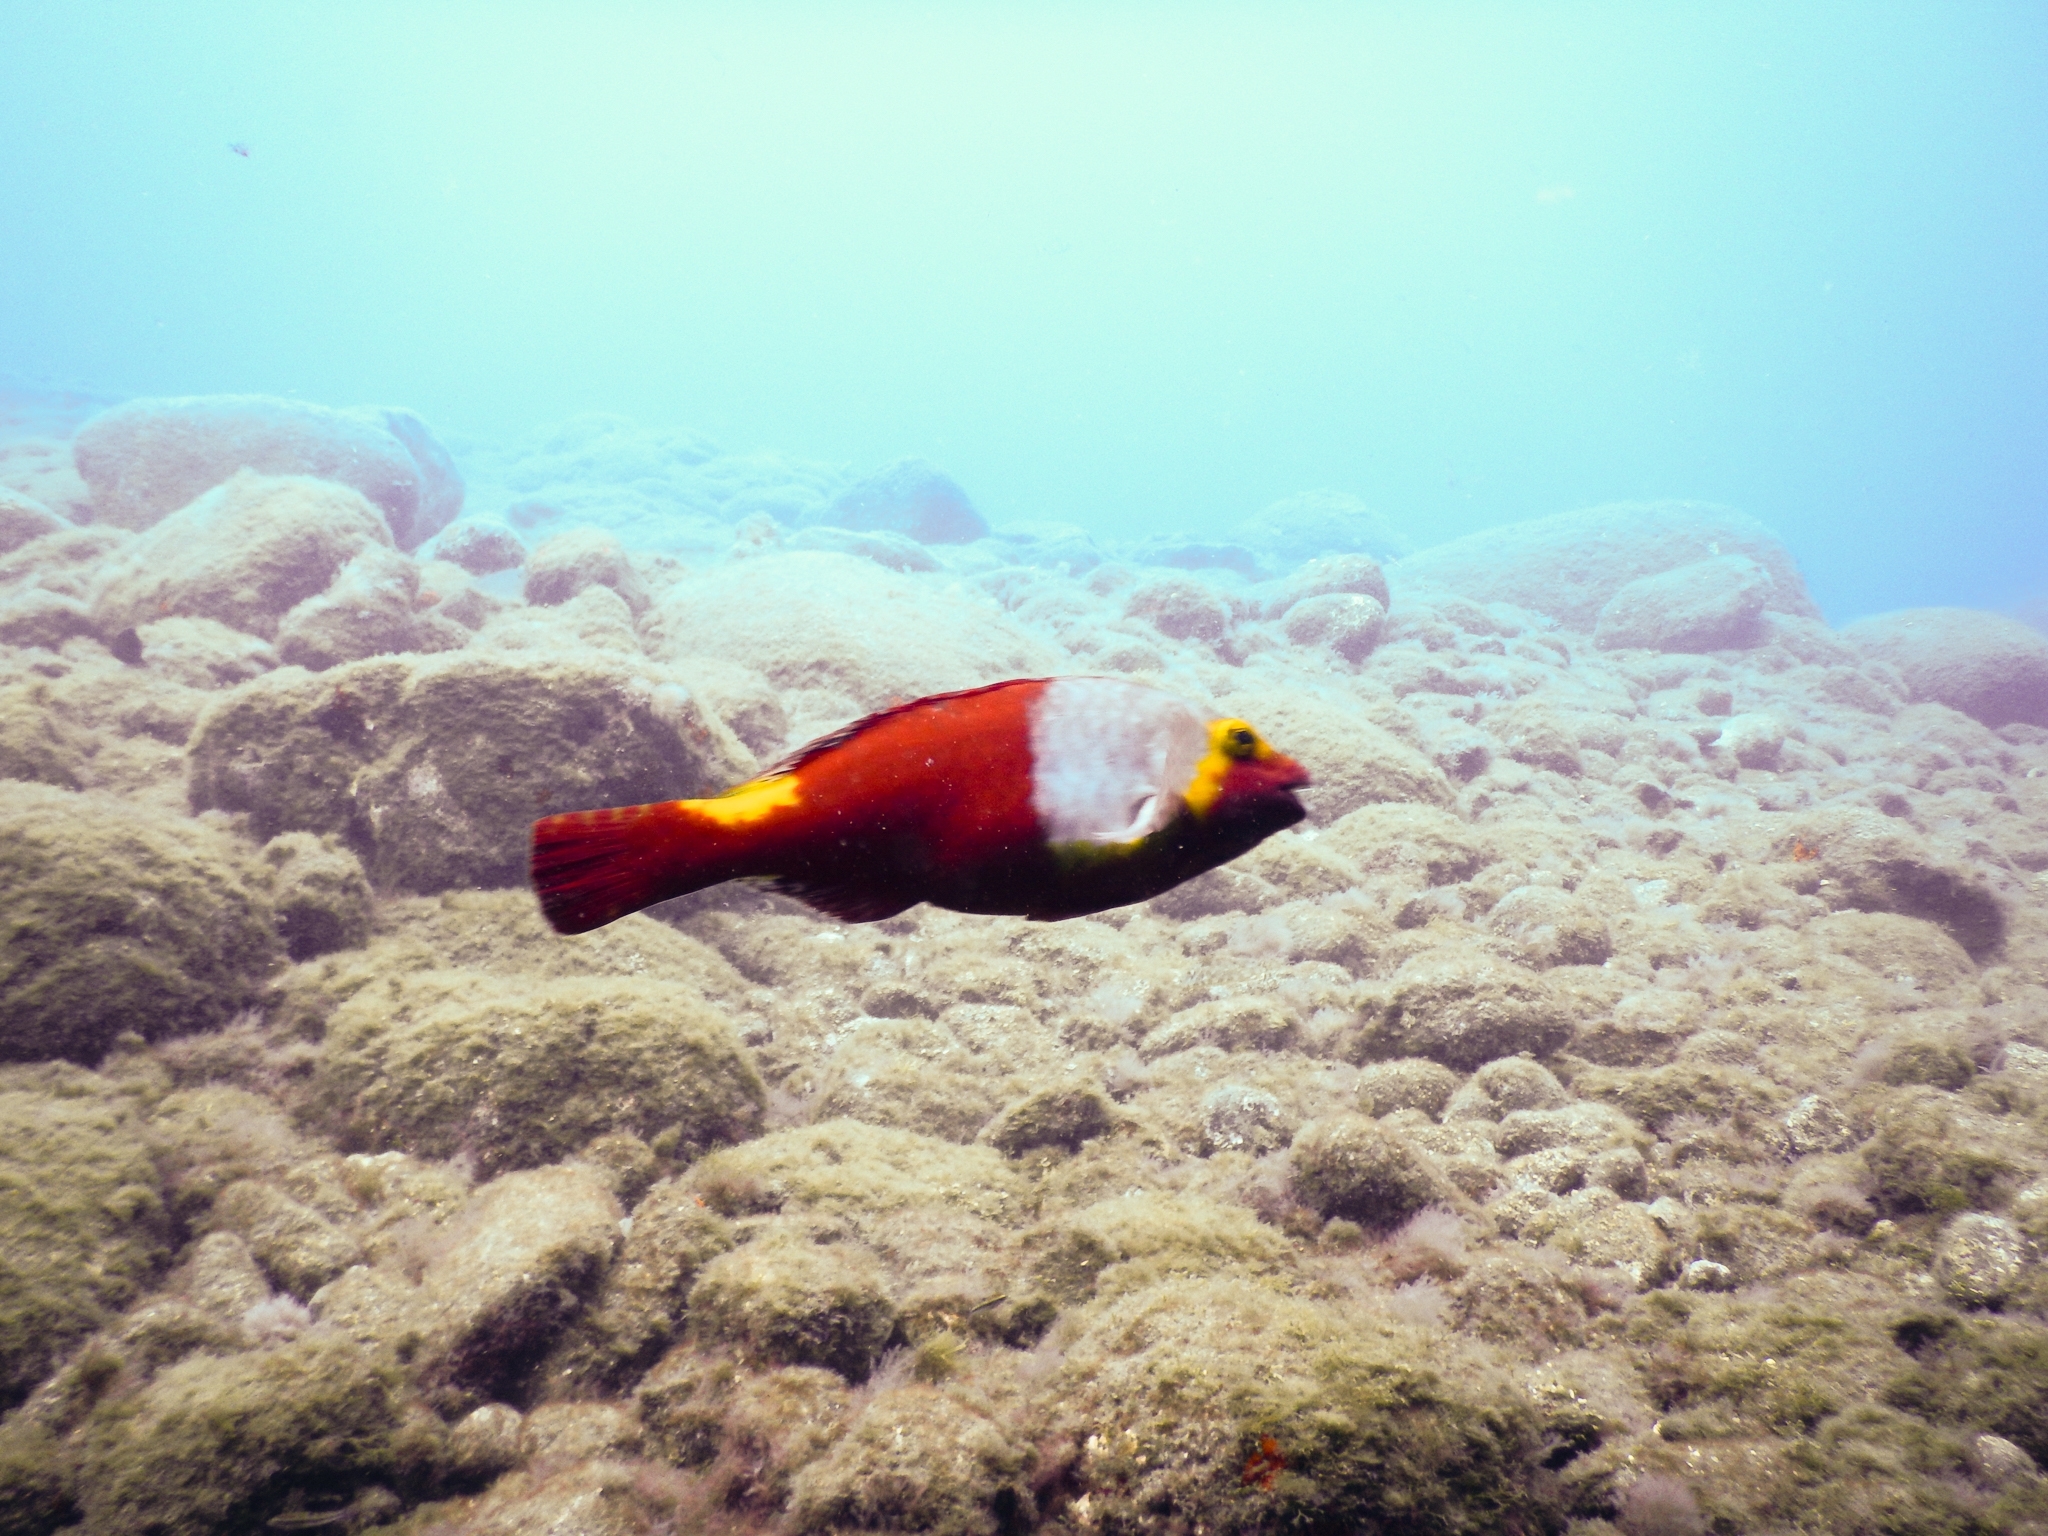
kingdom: Animalia
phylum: Chordata
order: Perciformes
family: Scaridae
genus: Sparisoma
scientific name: Sparisoma cretense
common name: Parrotfish
